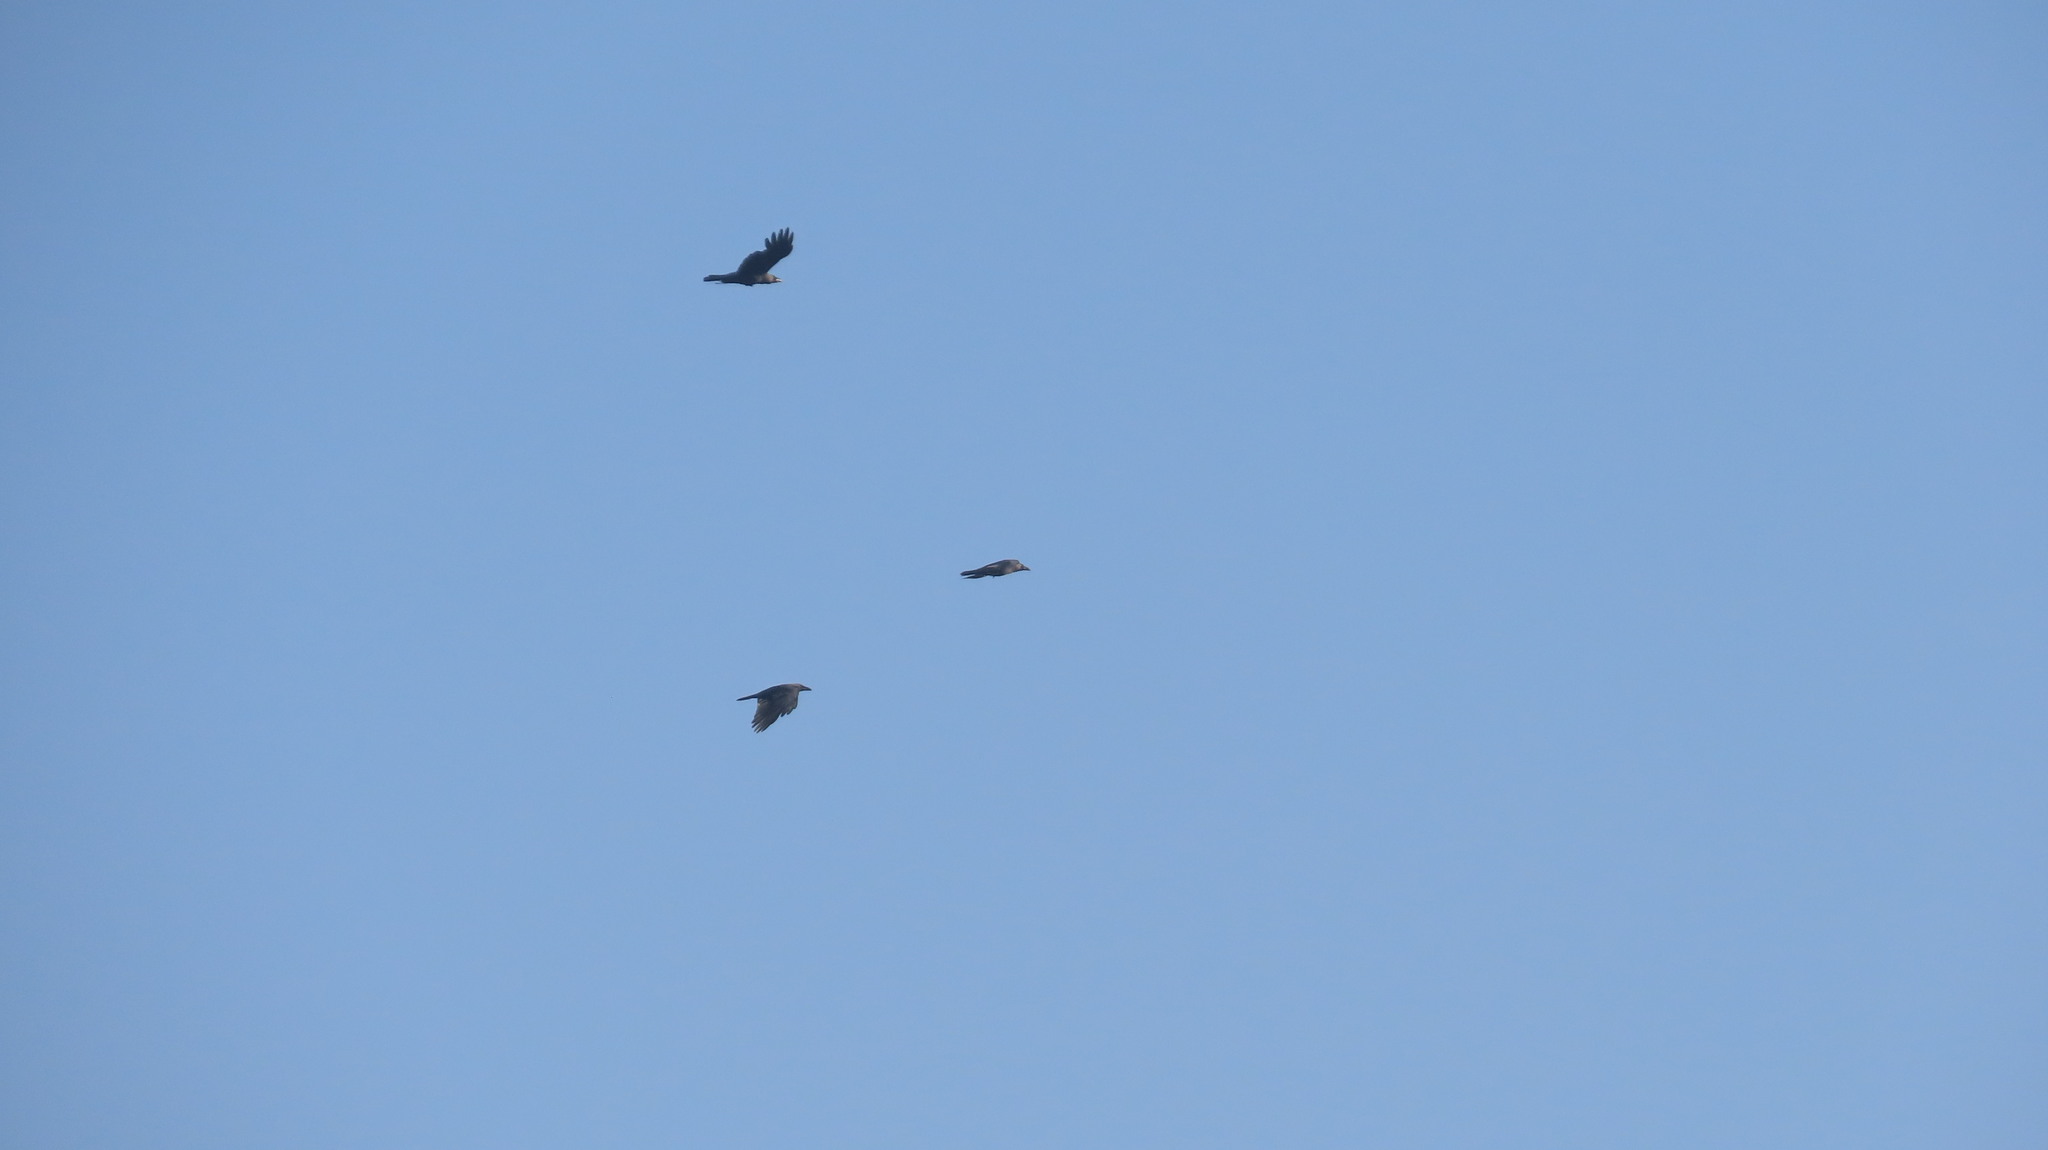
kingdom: Animalia
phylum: Chordata
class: Aves
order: Passeriformes
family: Corvidae
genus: Corvus
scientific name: Corvus splendens
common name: House crow
